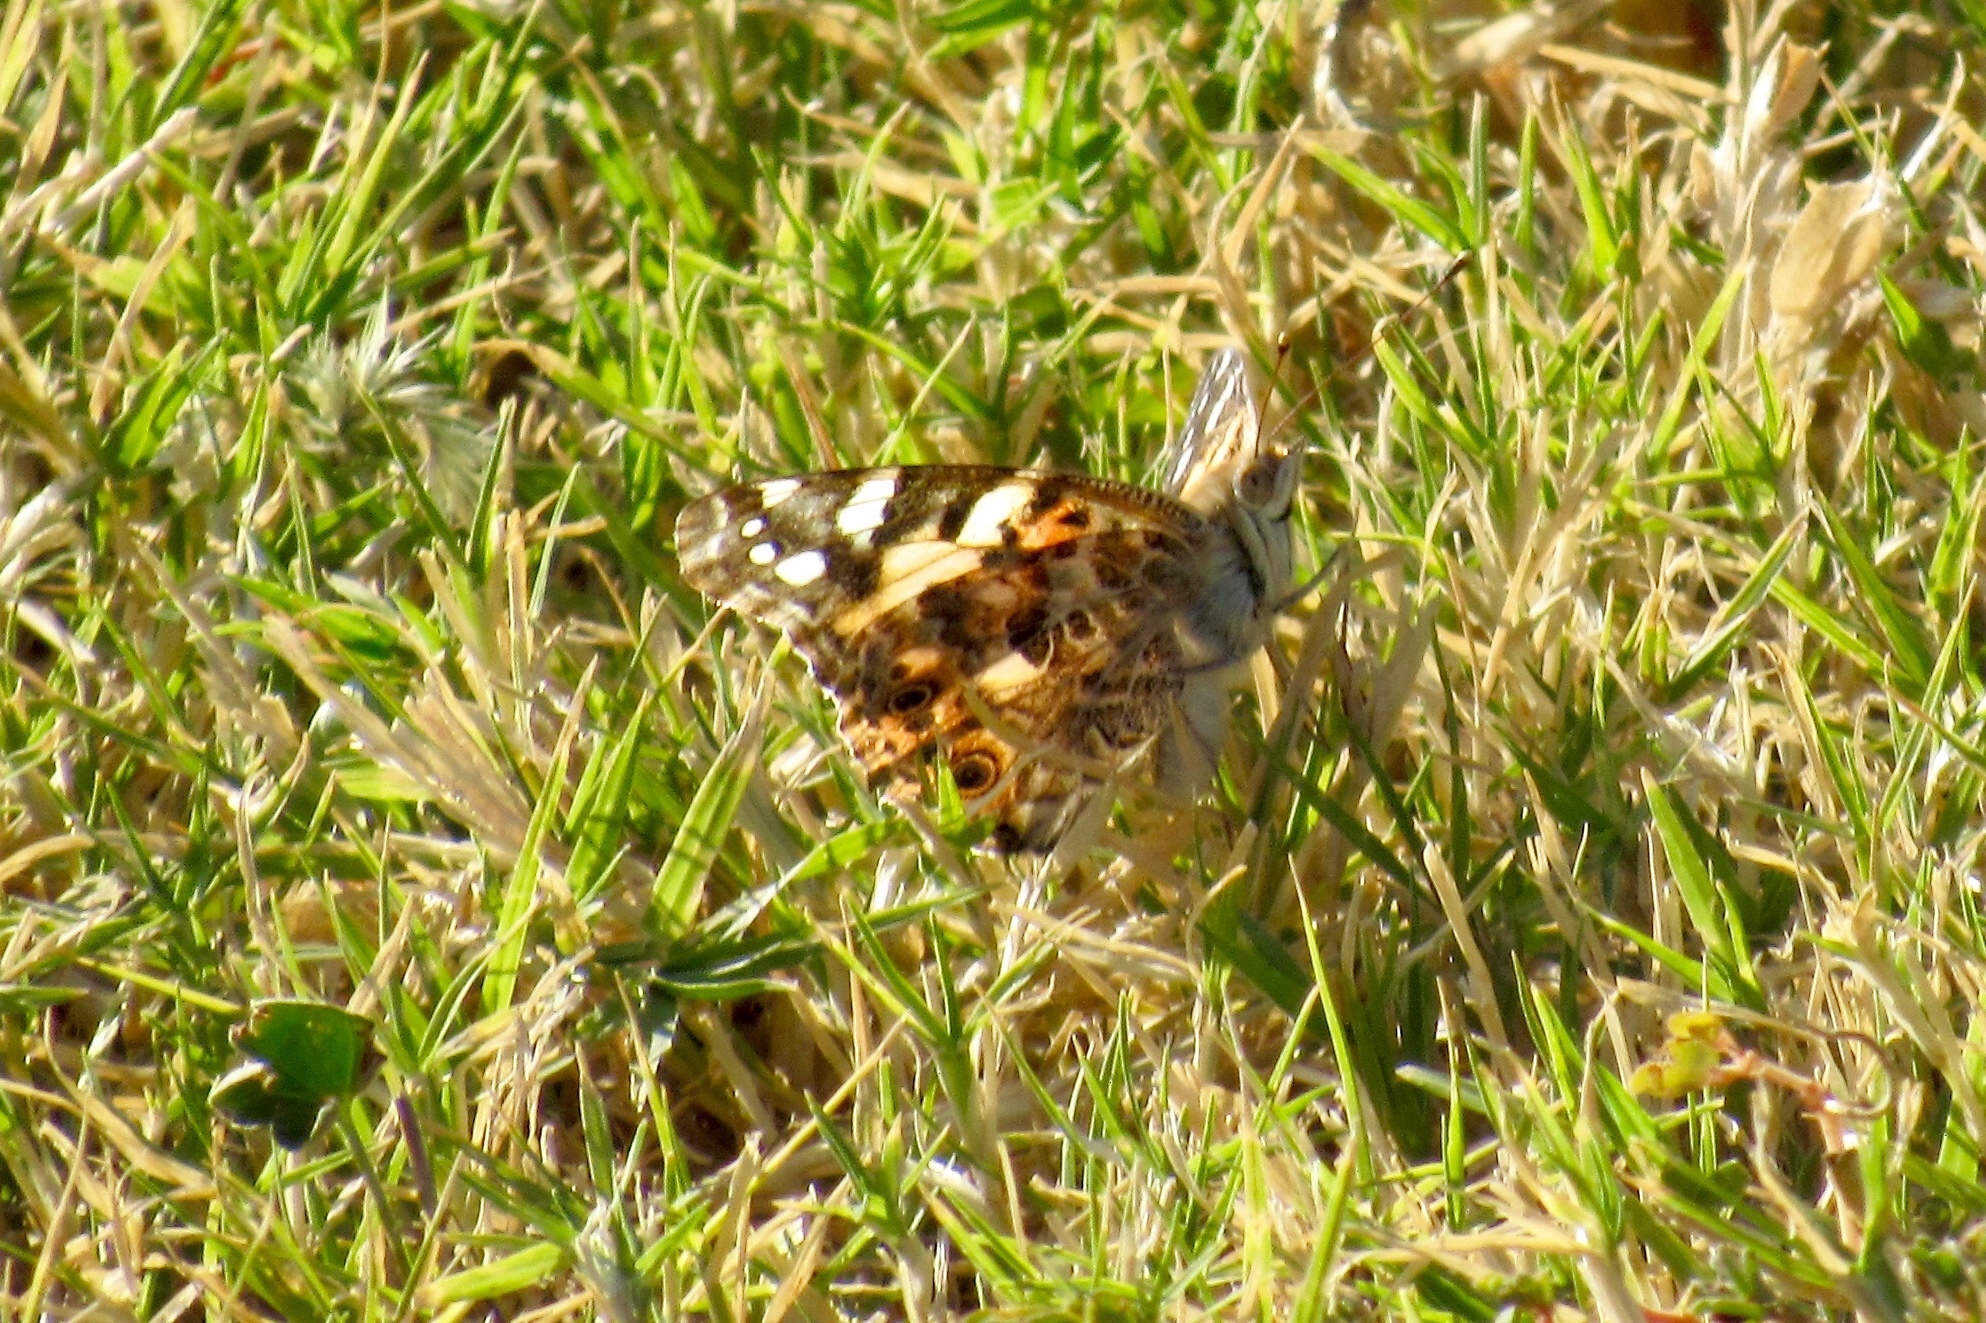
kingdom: Animalia
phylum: Arthropoda
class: Insecta
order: Lepidoptera
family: Nymphalidae
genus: Vanessa
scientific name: Vanessa cardui
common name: Painted lady
